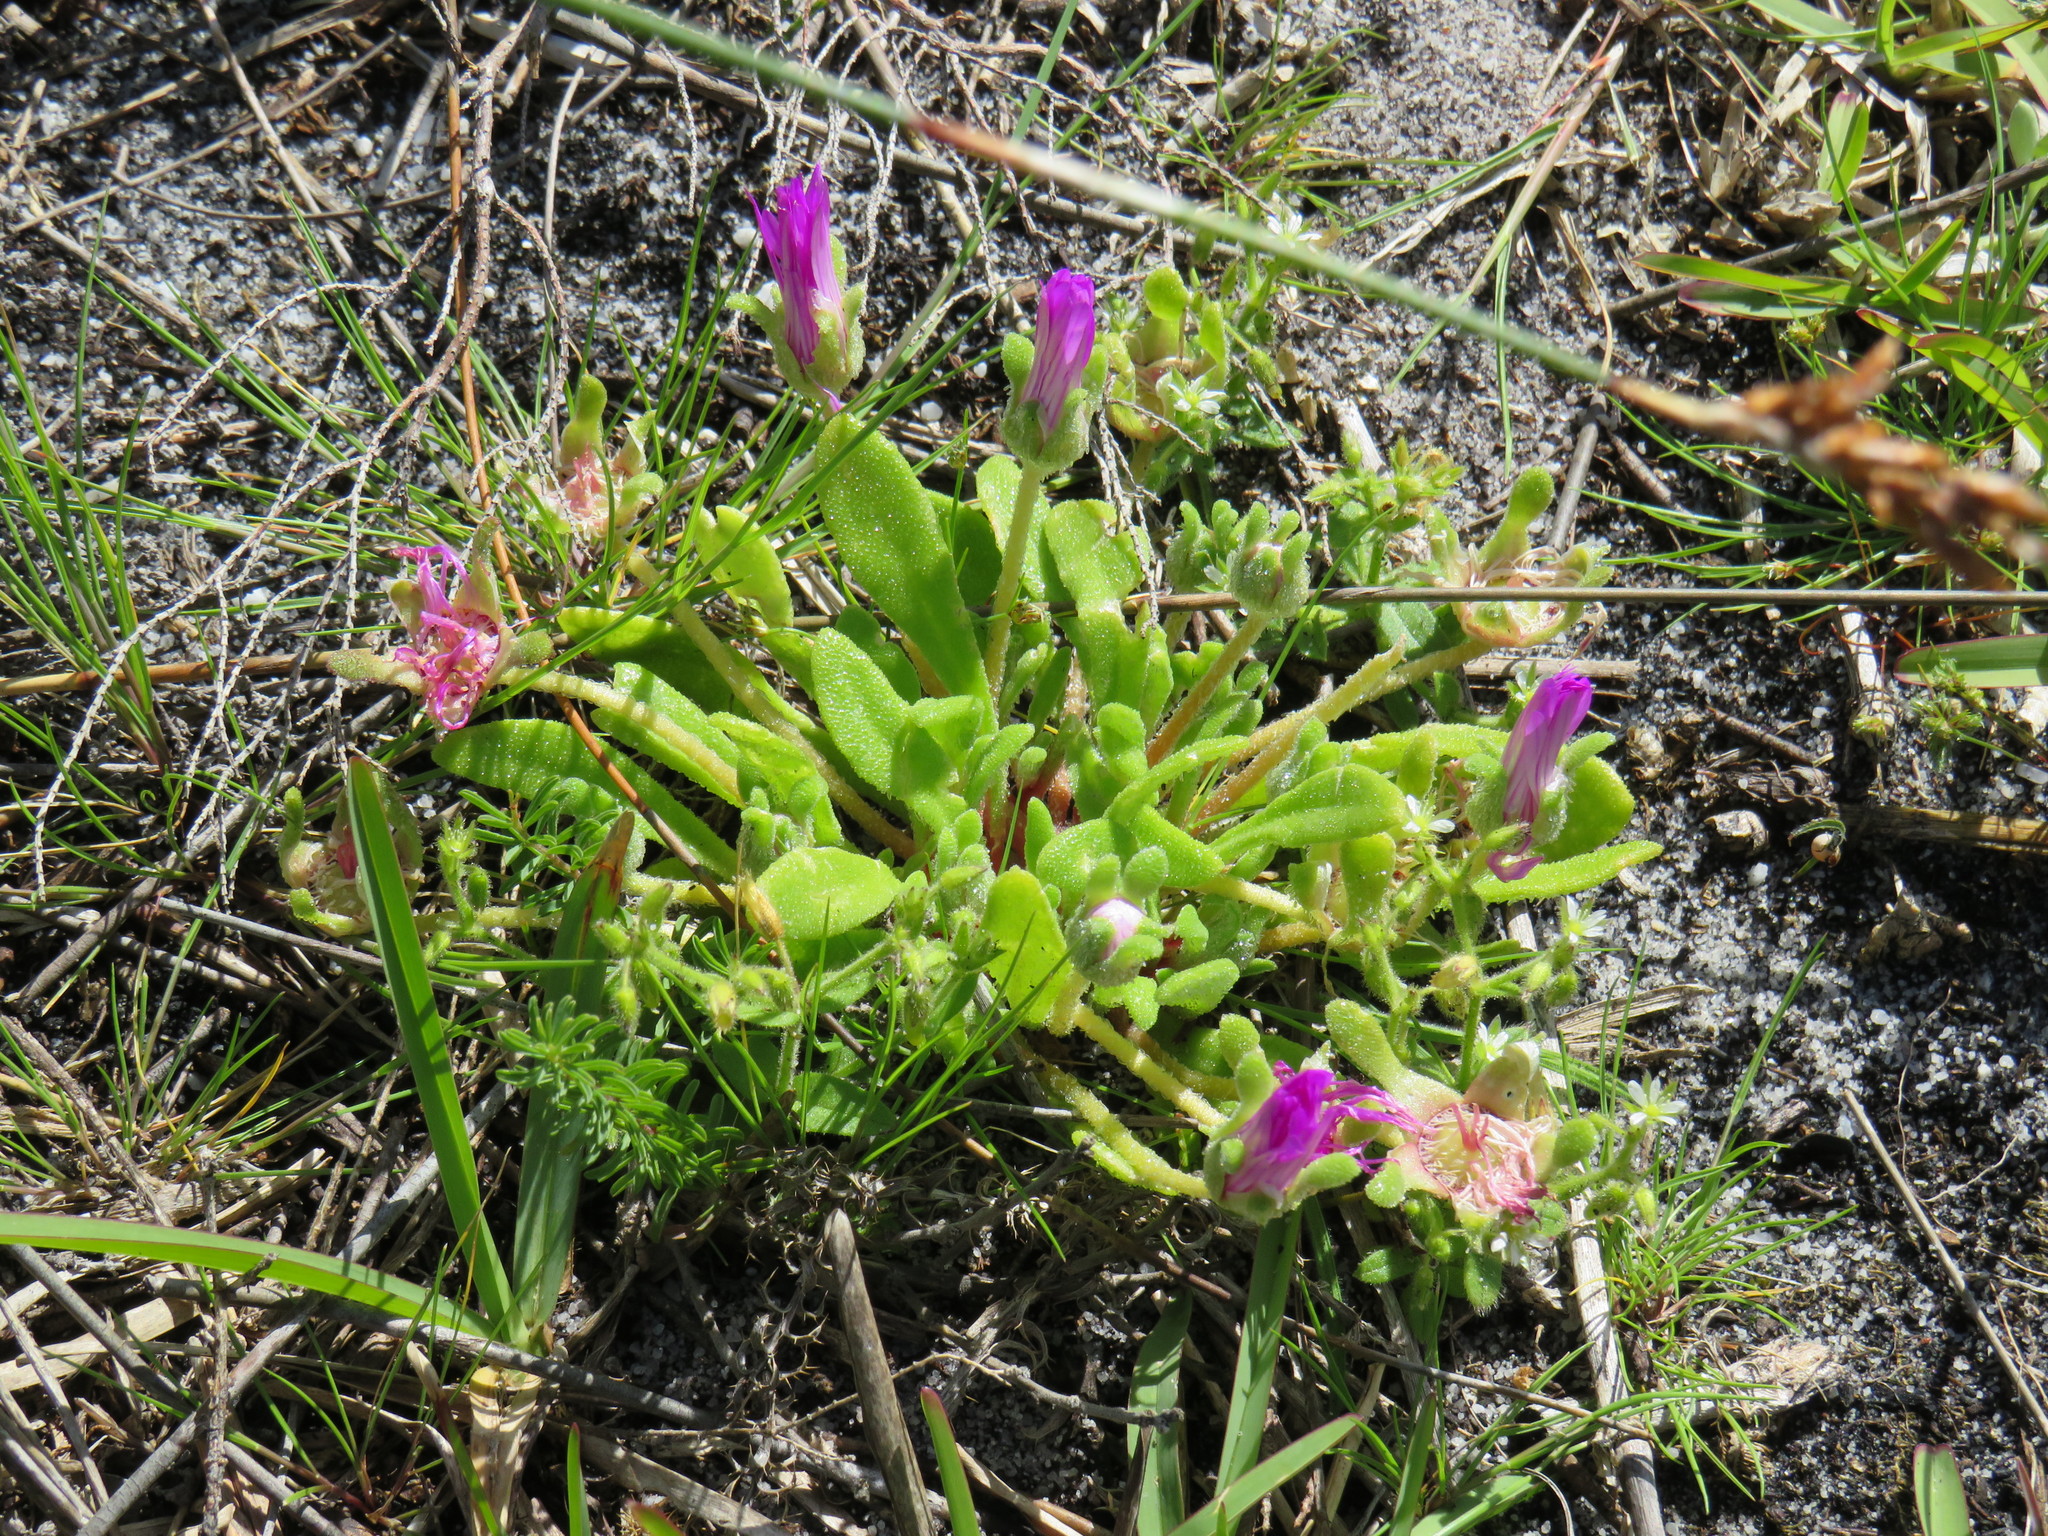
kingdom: Plantae
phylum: Tracheophyta
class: Magnoliopsida
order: Caryophyllales
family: Aizoaceae
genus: Cleretum
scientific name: Cleretum bellidiforme
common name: Livingstone daisy
